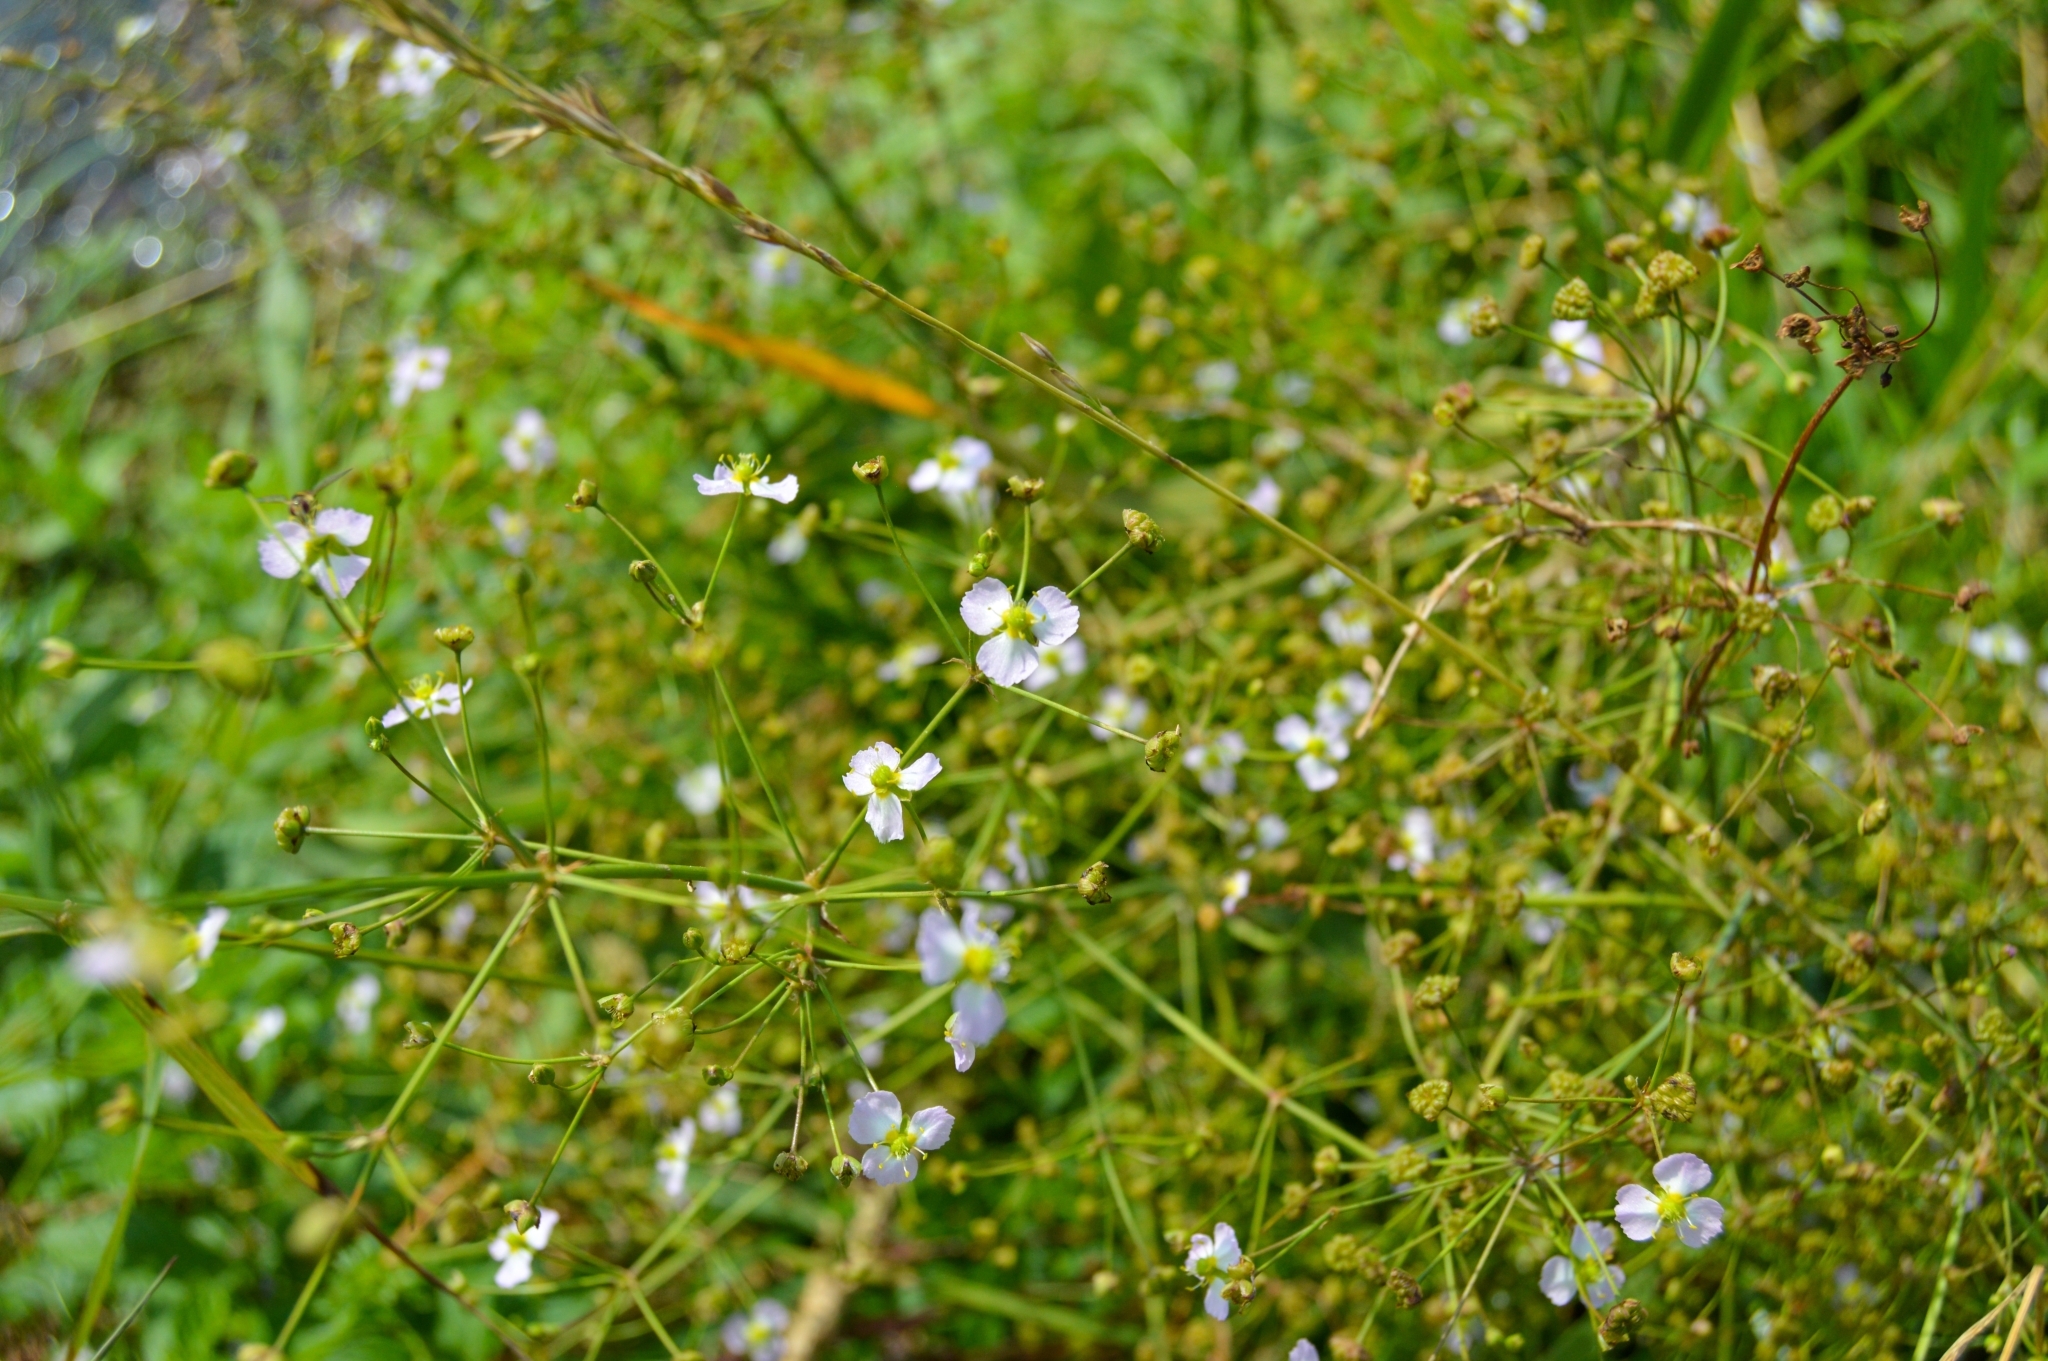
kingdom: Plantae
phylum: Tracheophyta
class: Liliopsida
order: Alismatales
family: Alismataceae
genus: Alisma
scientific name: Alisma plantago-aquatica
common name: Water-plantain
